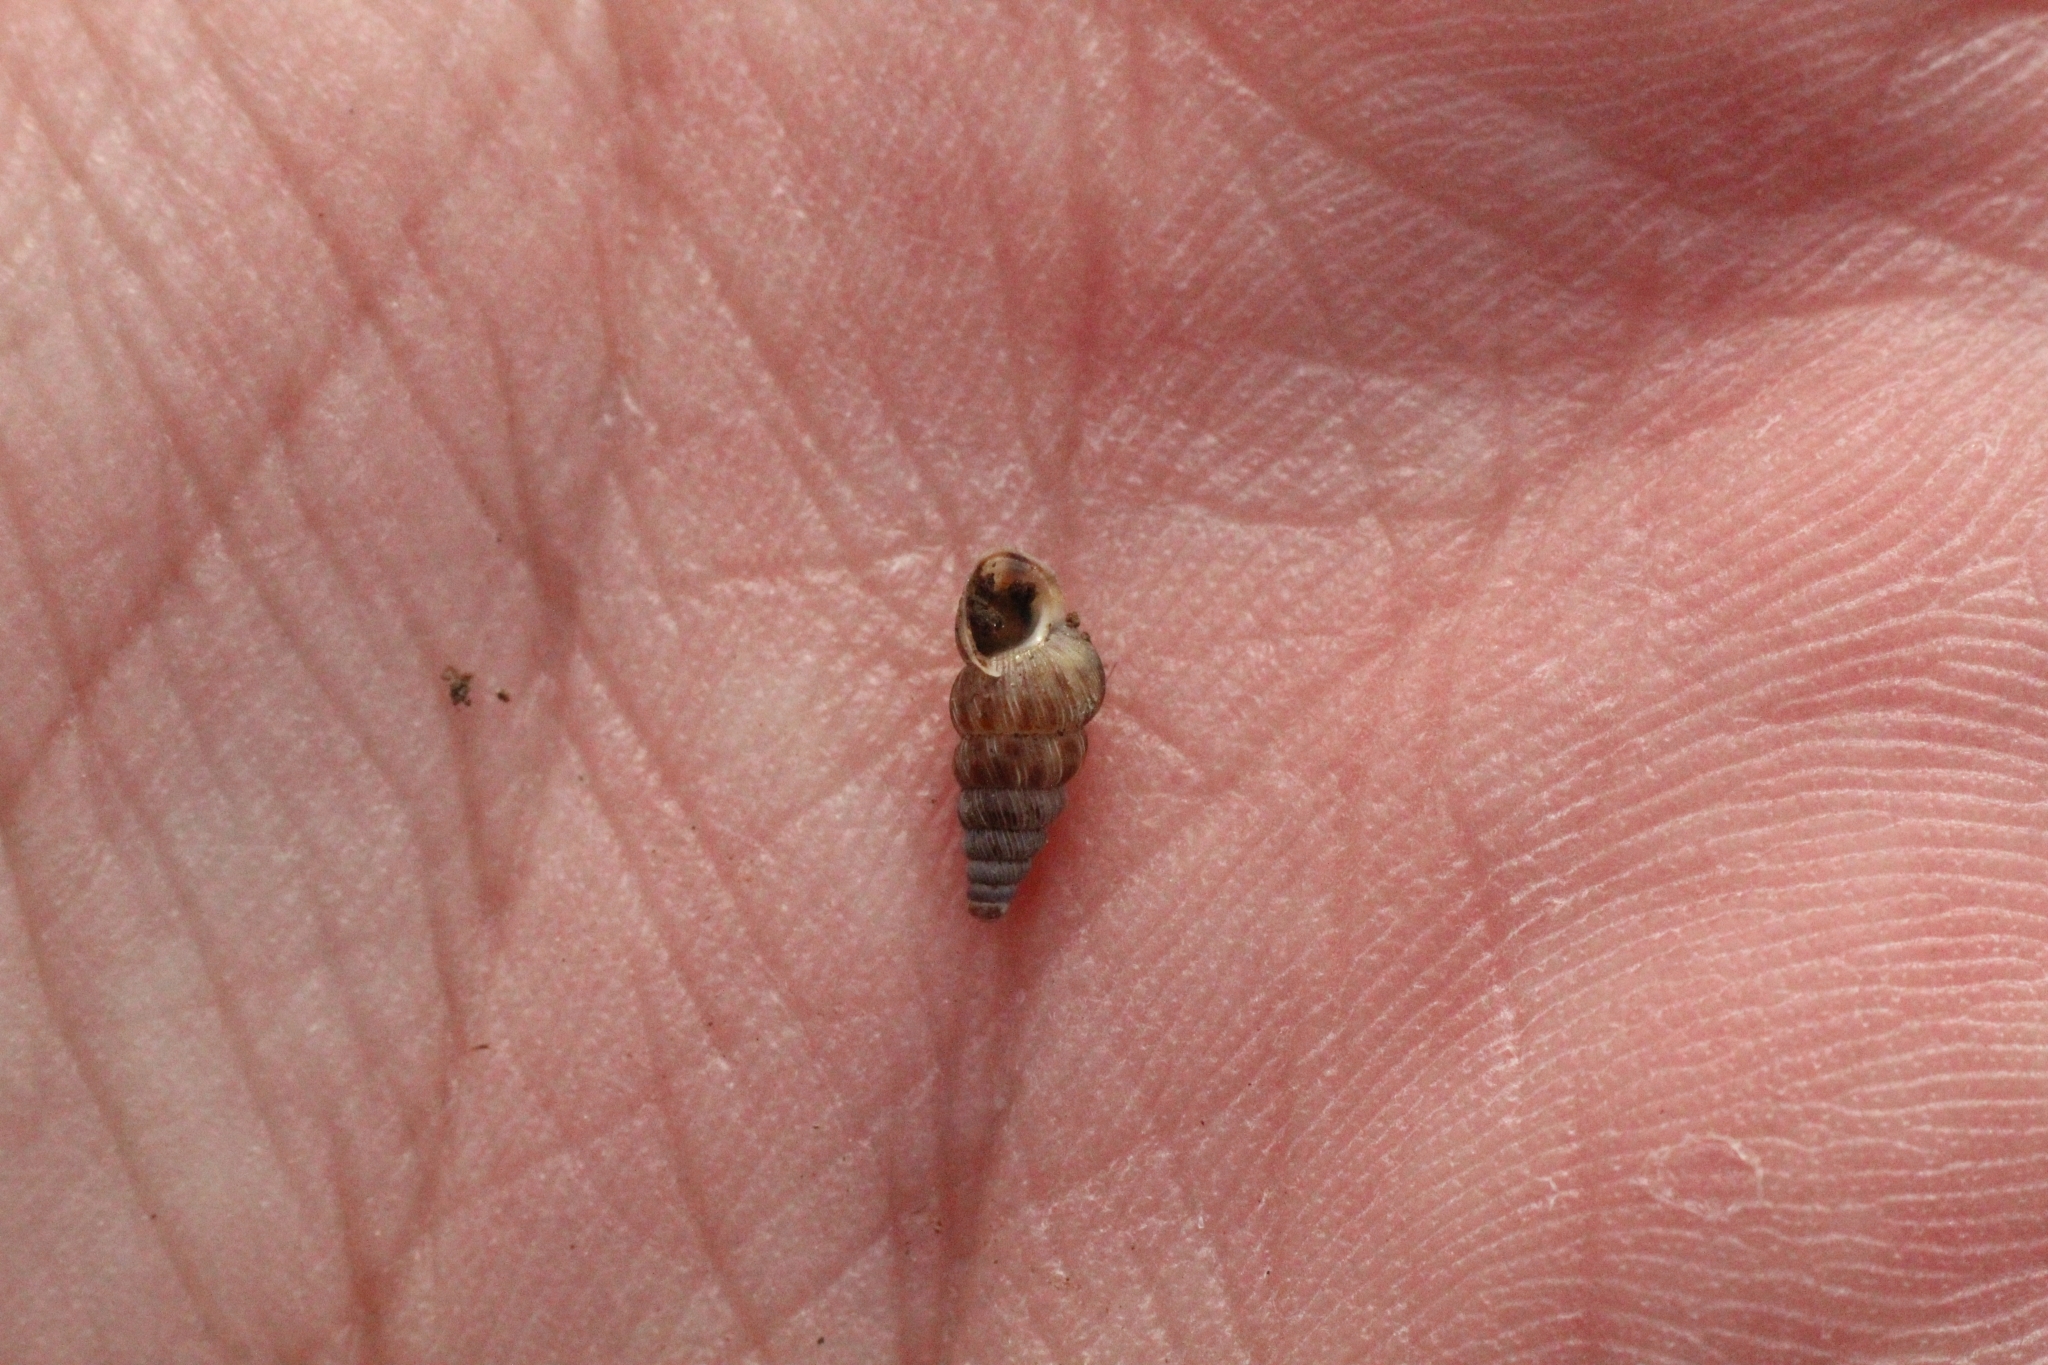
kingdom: Animalia
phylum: Mollusca
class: Gastropoda
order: Architaenioglossa
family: Cochlostomatidae
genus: Cochlostoma
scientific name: Cochlostoma septemspirale
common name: Seven-whorl snail
